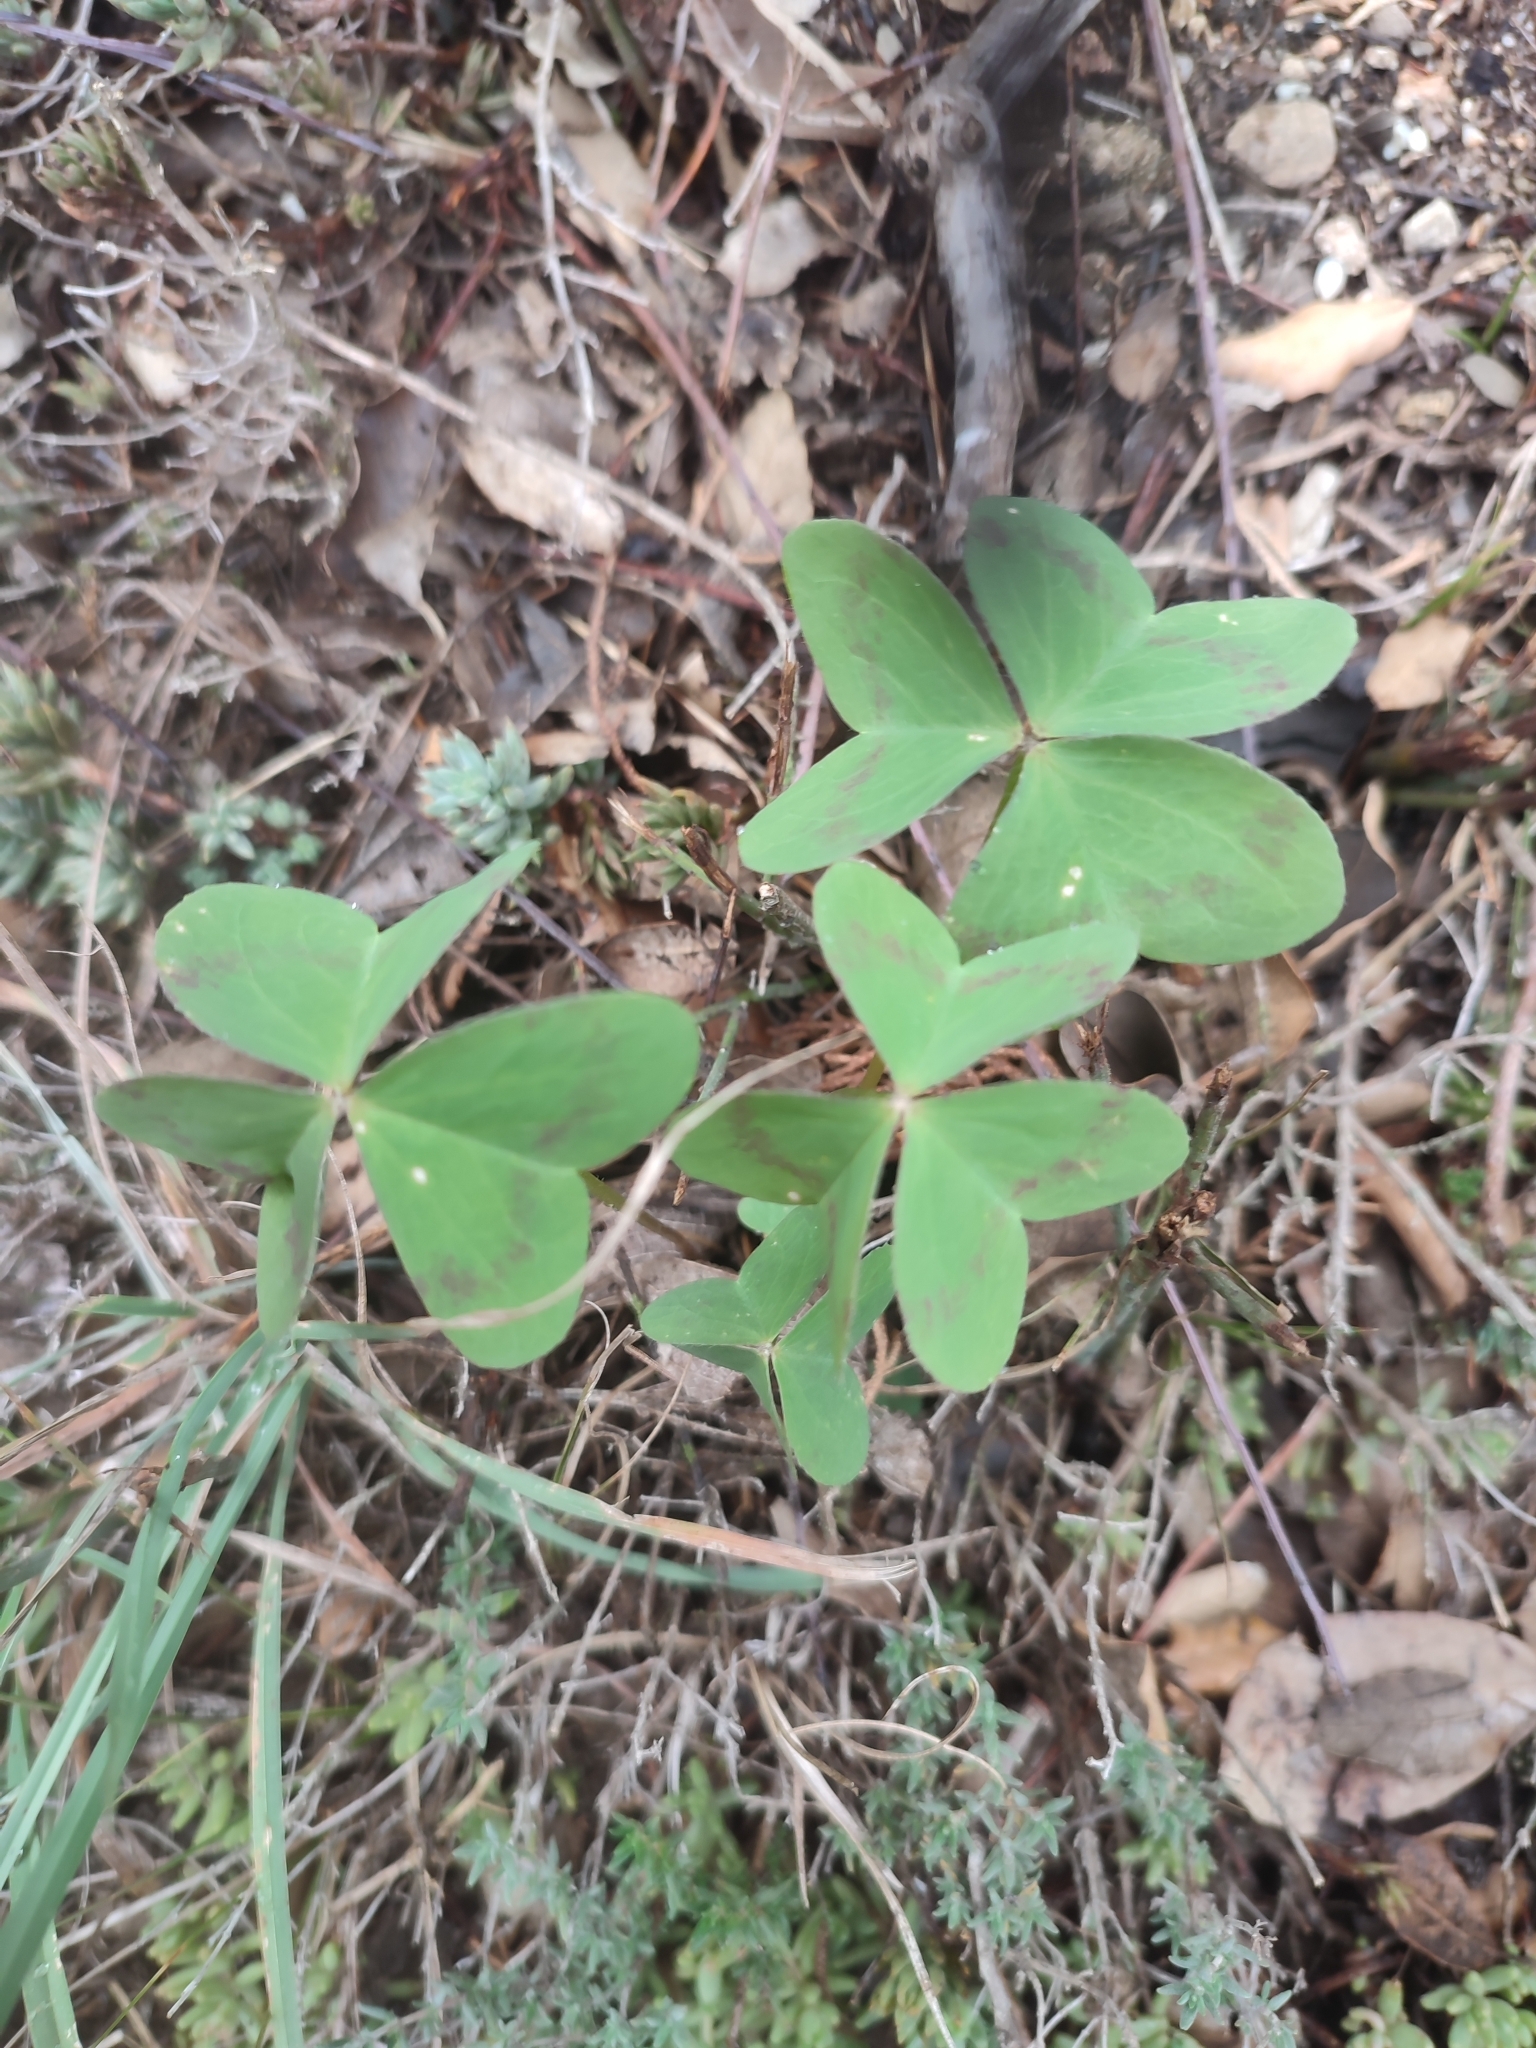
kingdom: Plantae
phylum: Tracheophyta
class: Magnoliopsida
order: Oxalidales
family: Oxalidaceae
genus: Oxalis
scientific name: Oxalis pes-caprae
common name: Bermuda-buttercup
